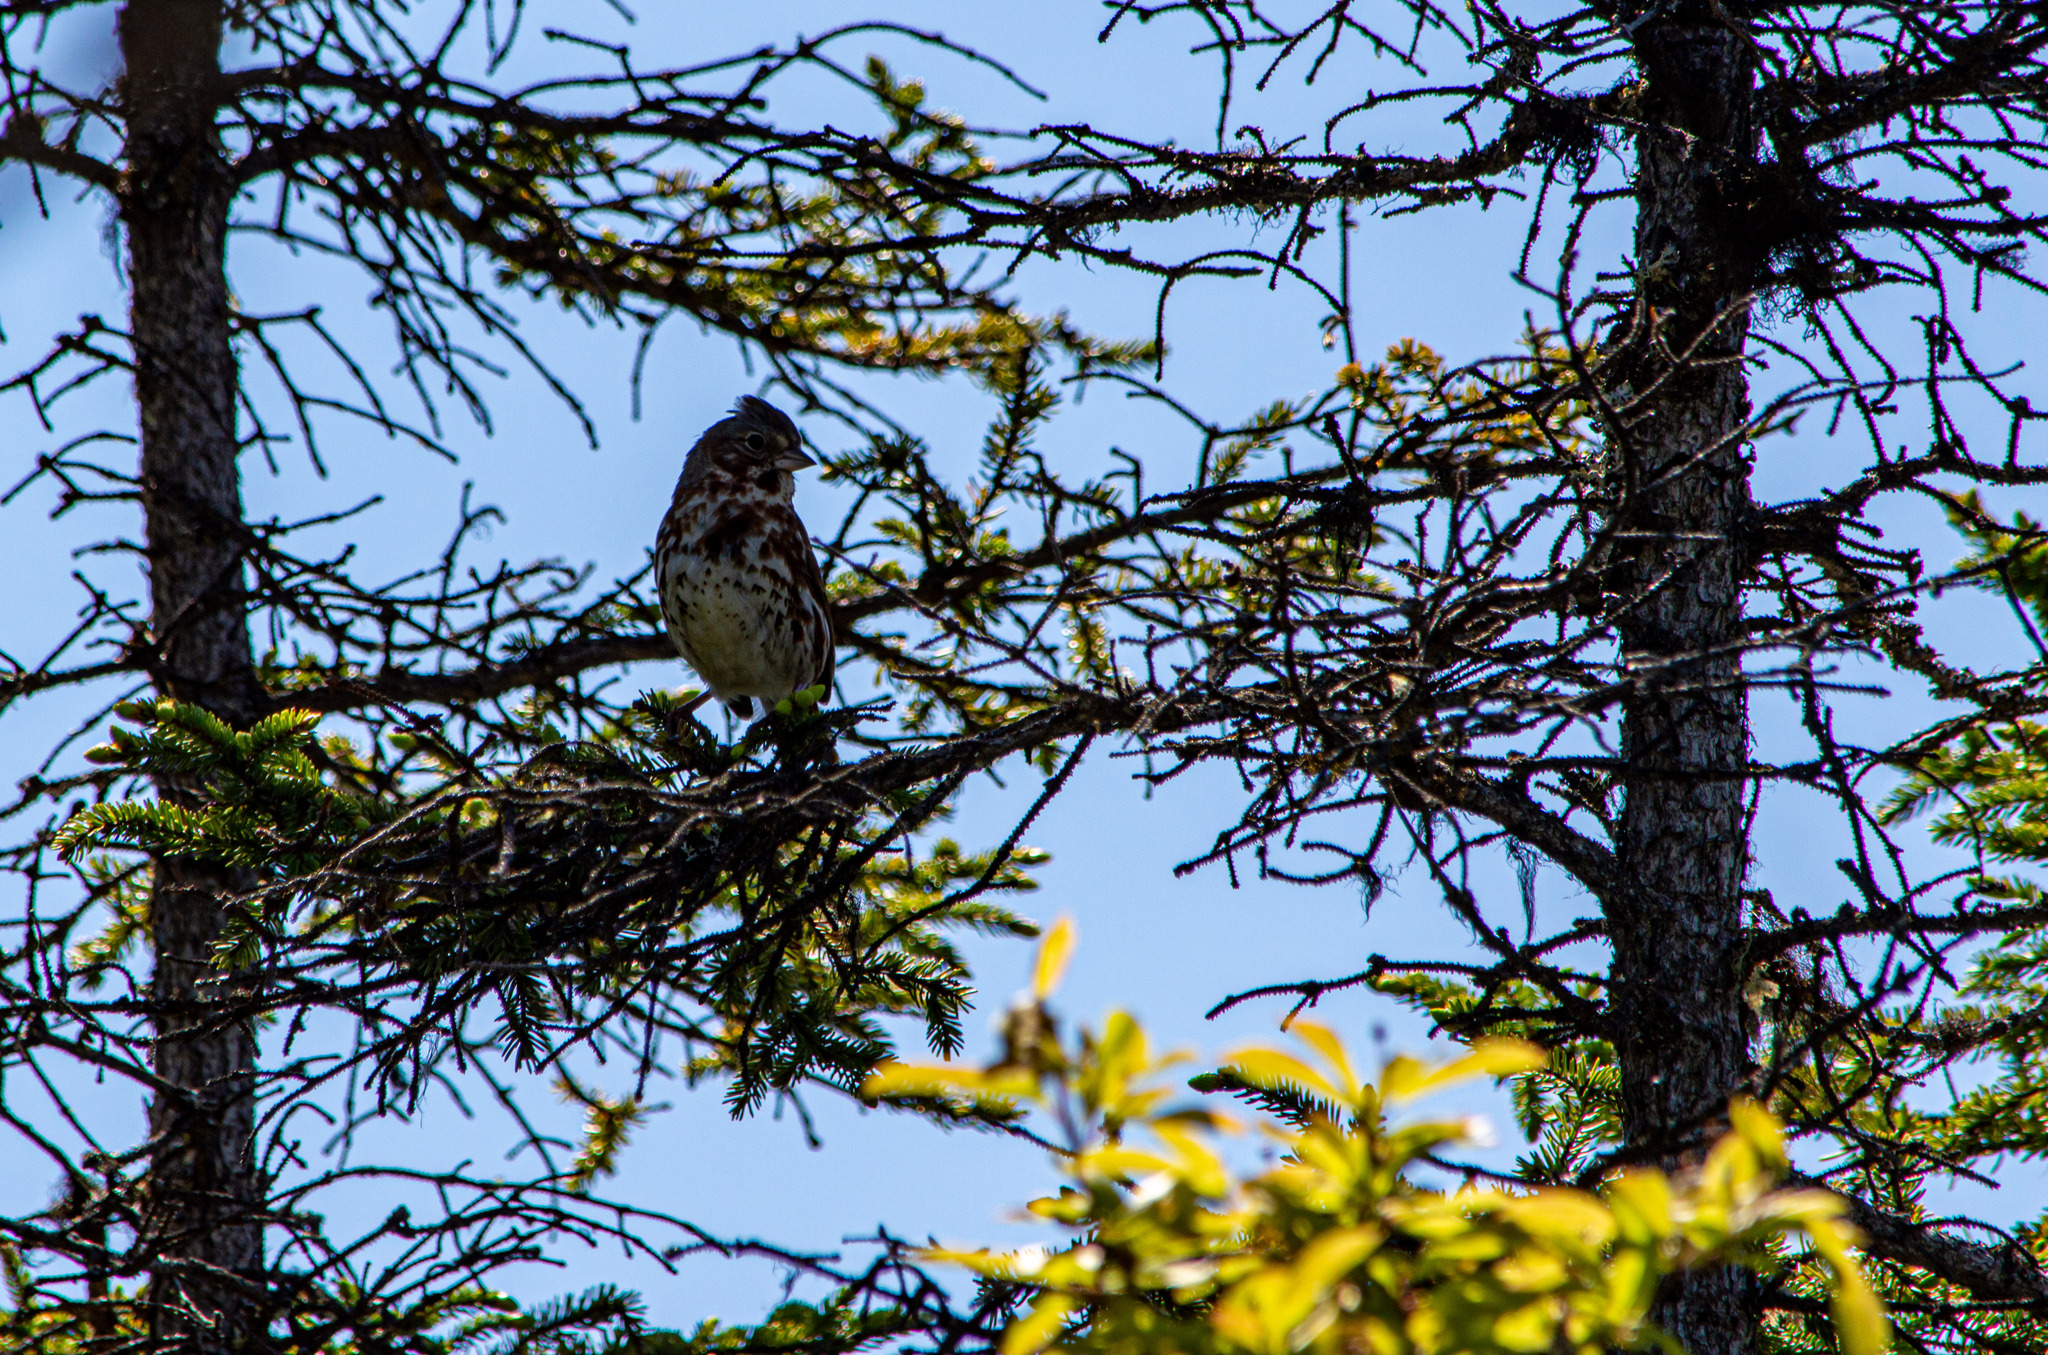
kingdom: Animalia
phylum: Chordata
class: Aves
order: Passeriformes
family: Passerellidae
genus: Passerella
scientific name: Passerella iliaca
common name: Fox sparrow
